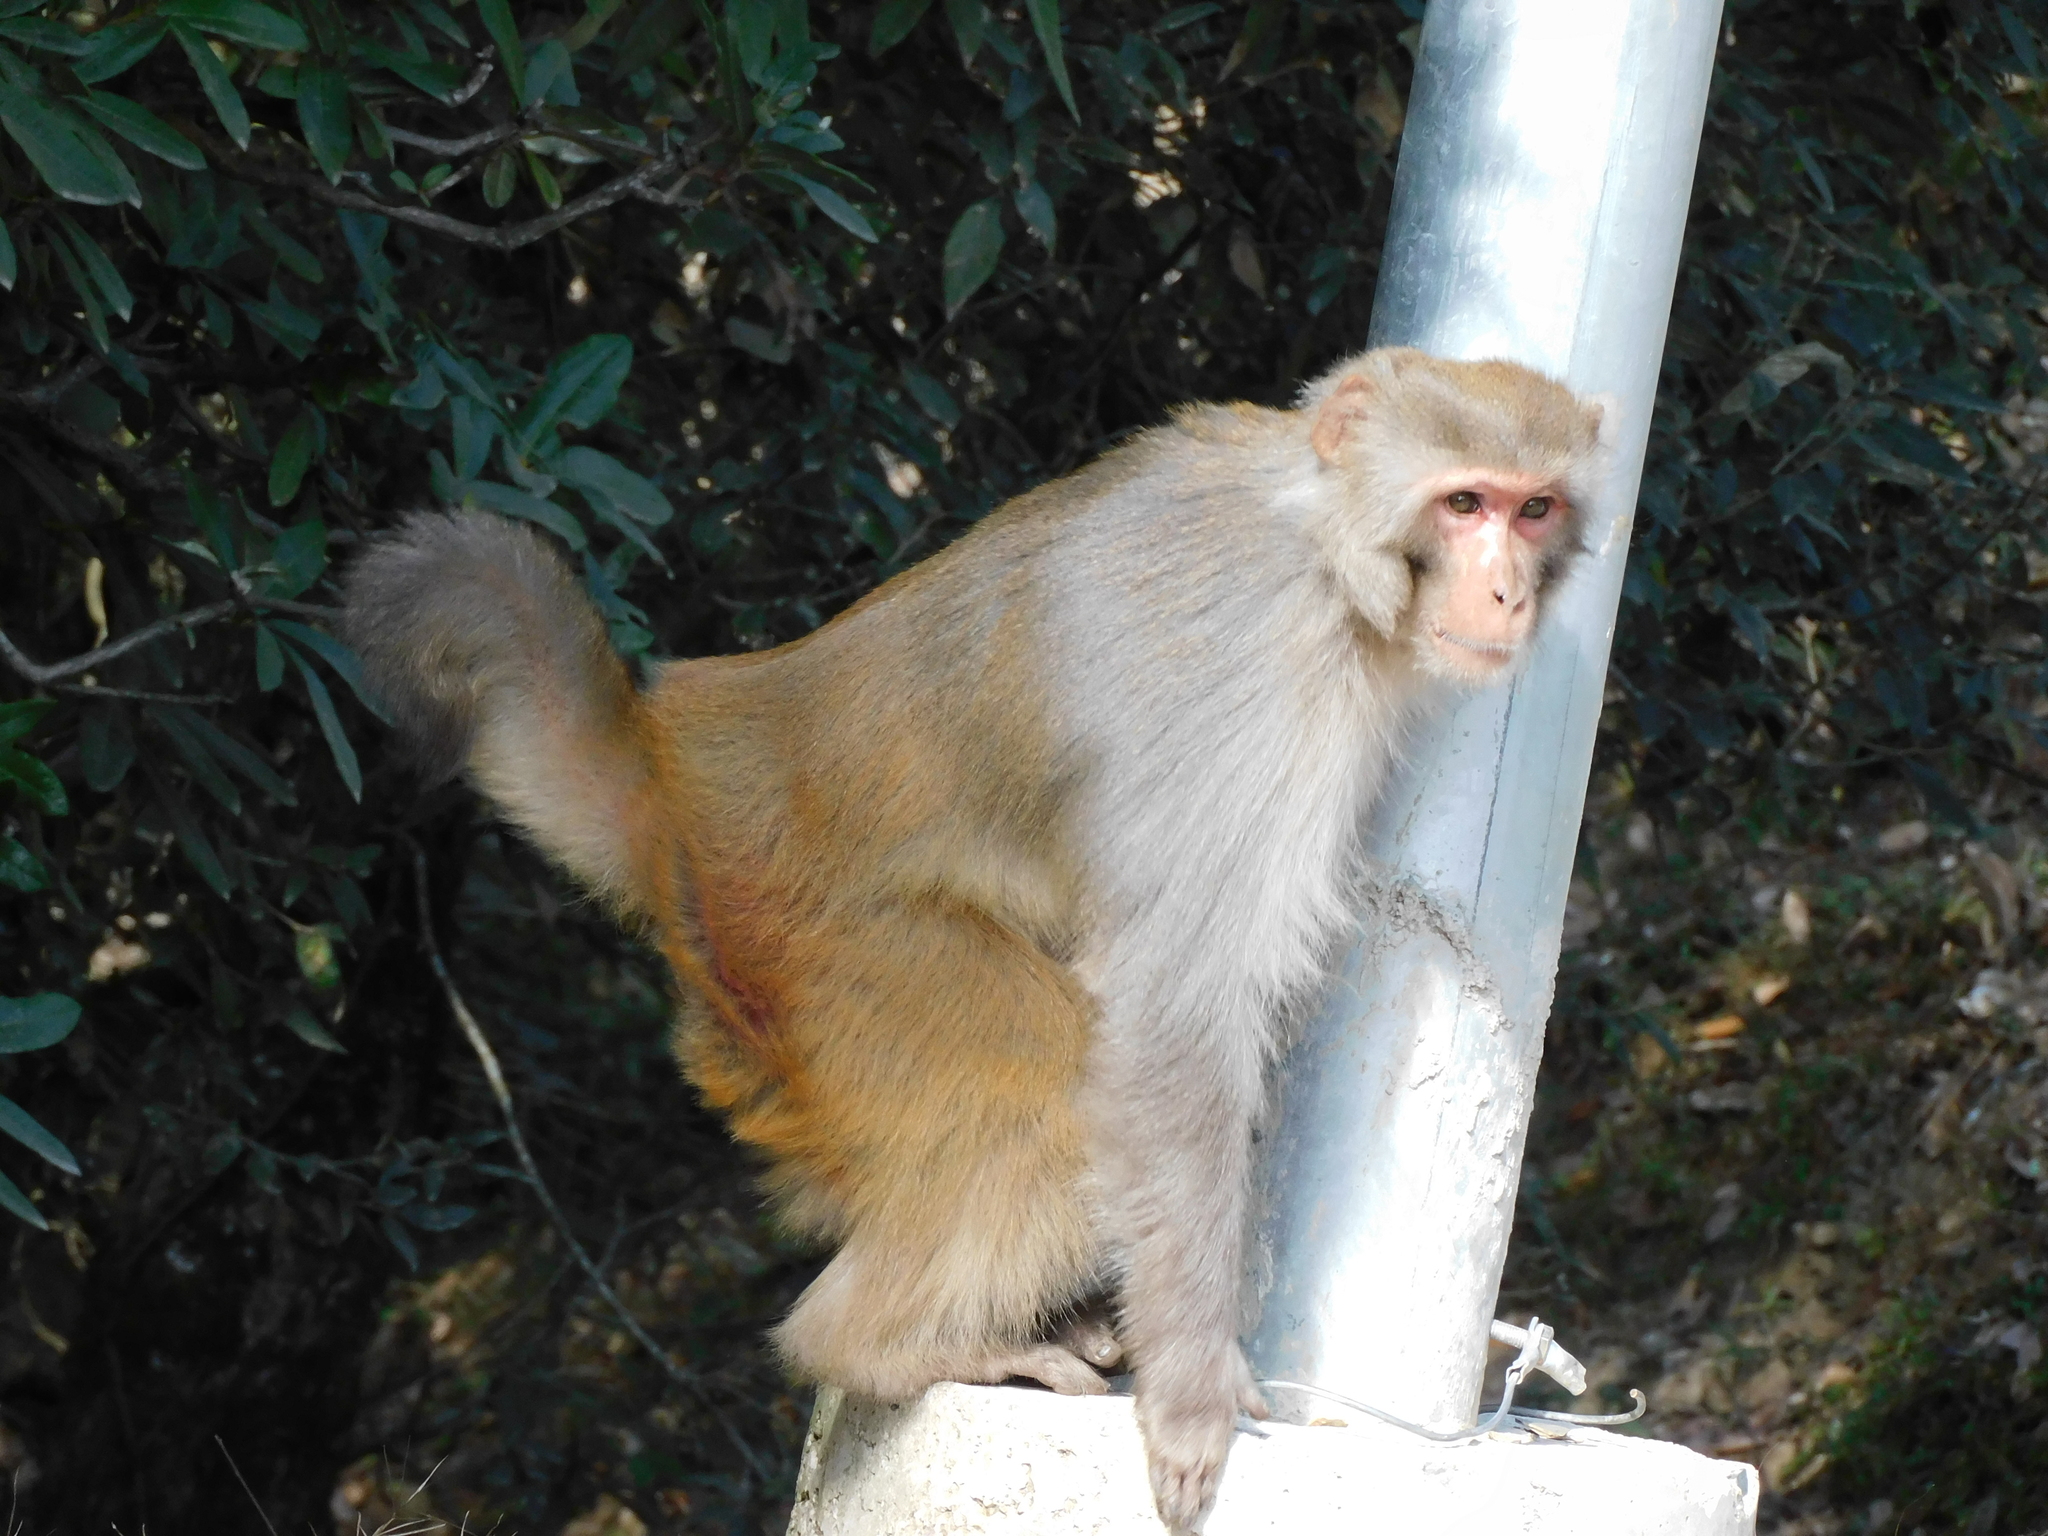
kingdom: Animalia
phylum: Chordata
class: Mammalia
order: Primates
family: Cercopithecidae
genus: Macaca
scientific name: Macaca mulatta
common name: Rhesus monkey
